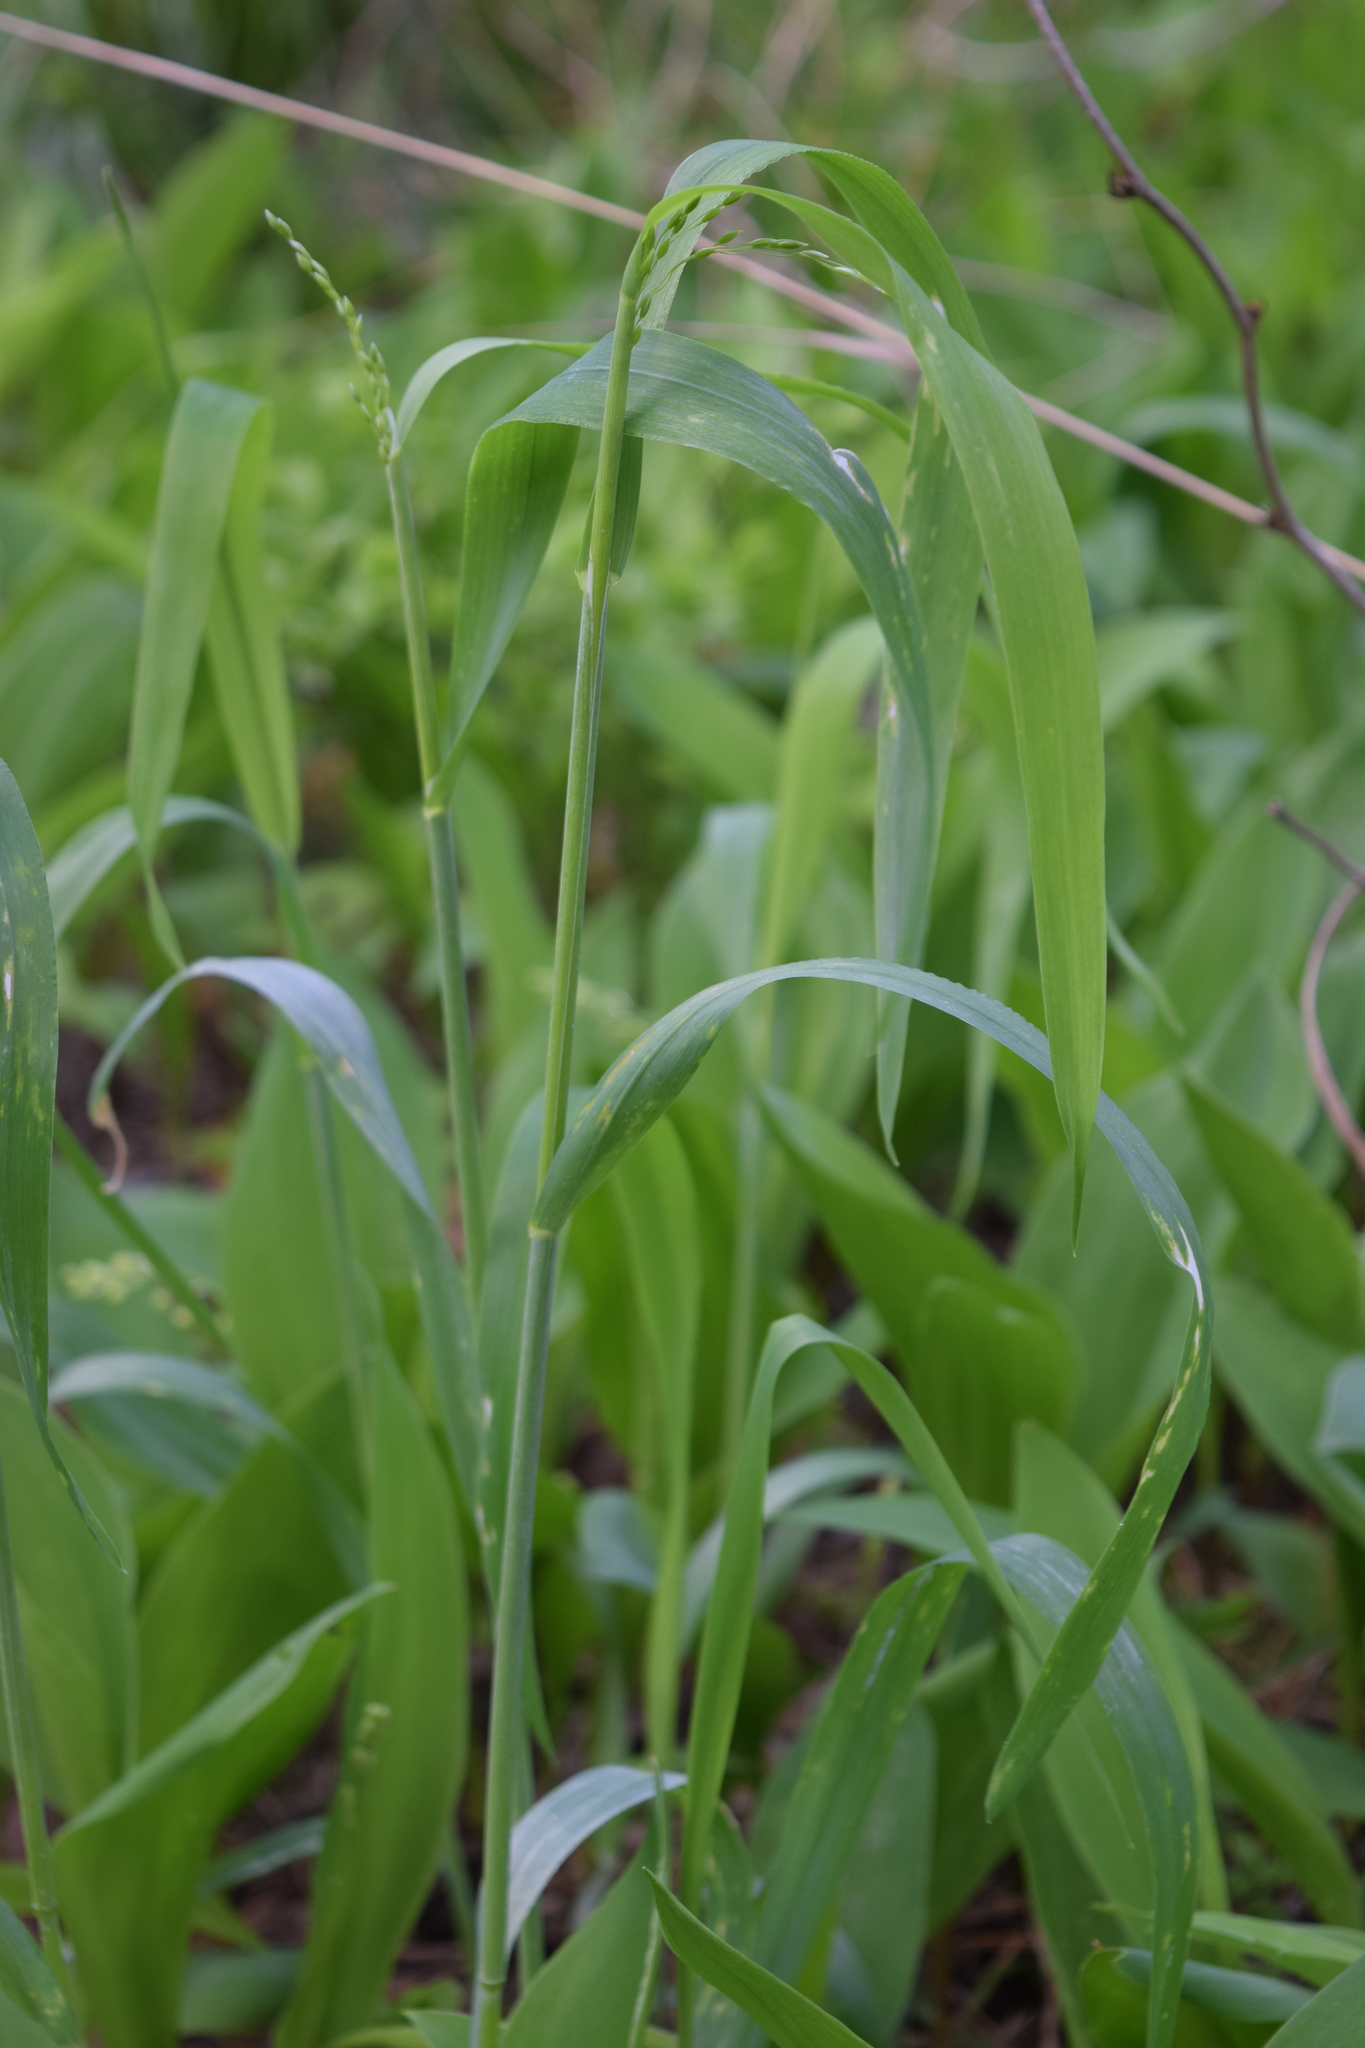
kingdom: Plantae
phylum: Tracheophyta
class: Liliopsida
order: Poales
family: Poaceae
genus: Milium
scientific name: Milium effusum
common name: Wood millet
